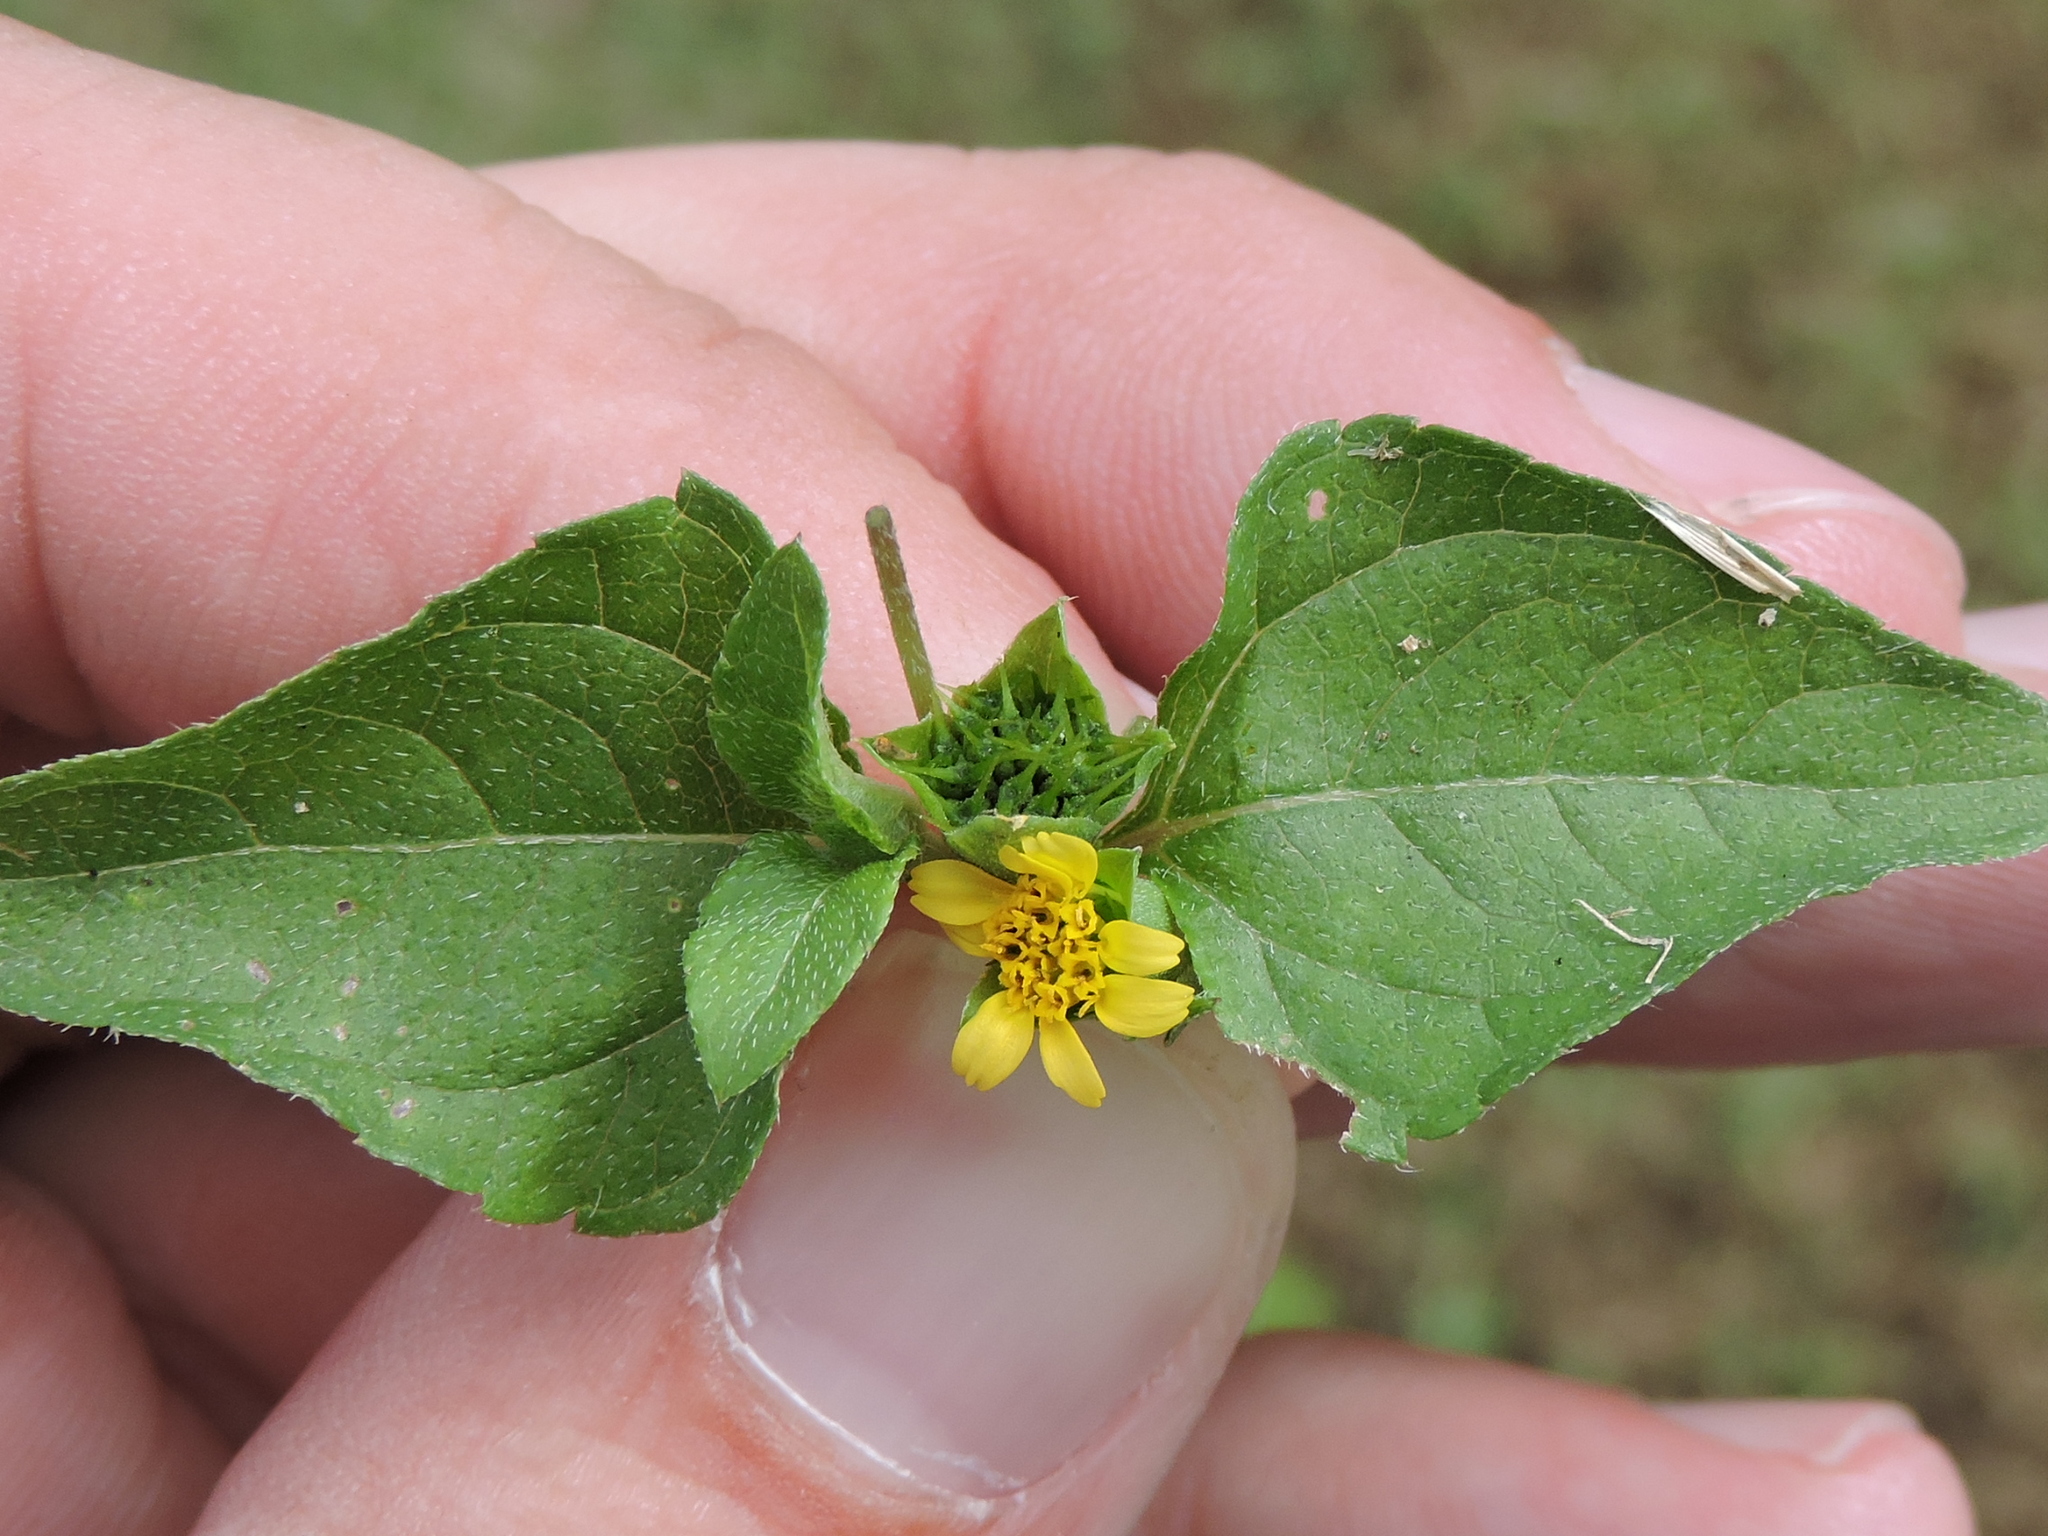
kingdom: Plantae
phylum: Tracheophyta
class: Magnoliopsida
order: Asterales
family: Asteraceae
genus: Calyptocarpus
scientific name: Calyptocarpus vialis
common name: Straggler daisy
